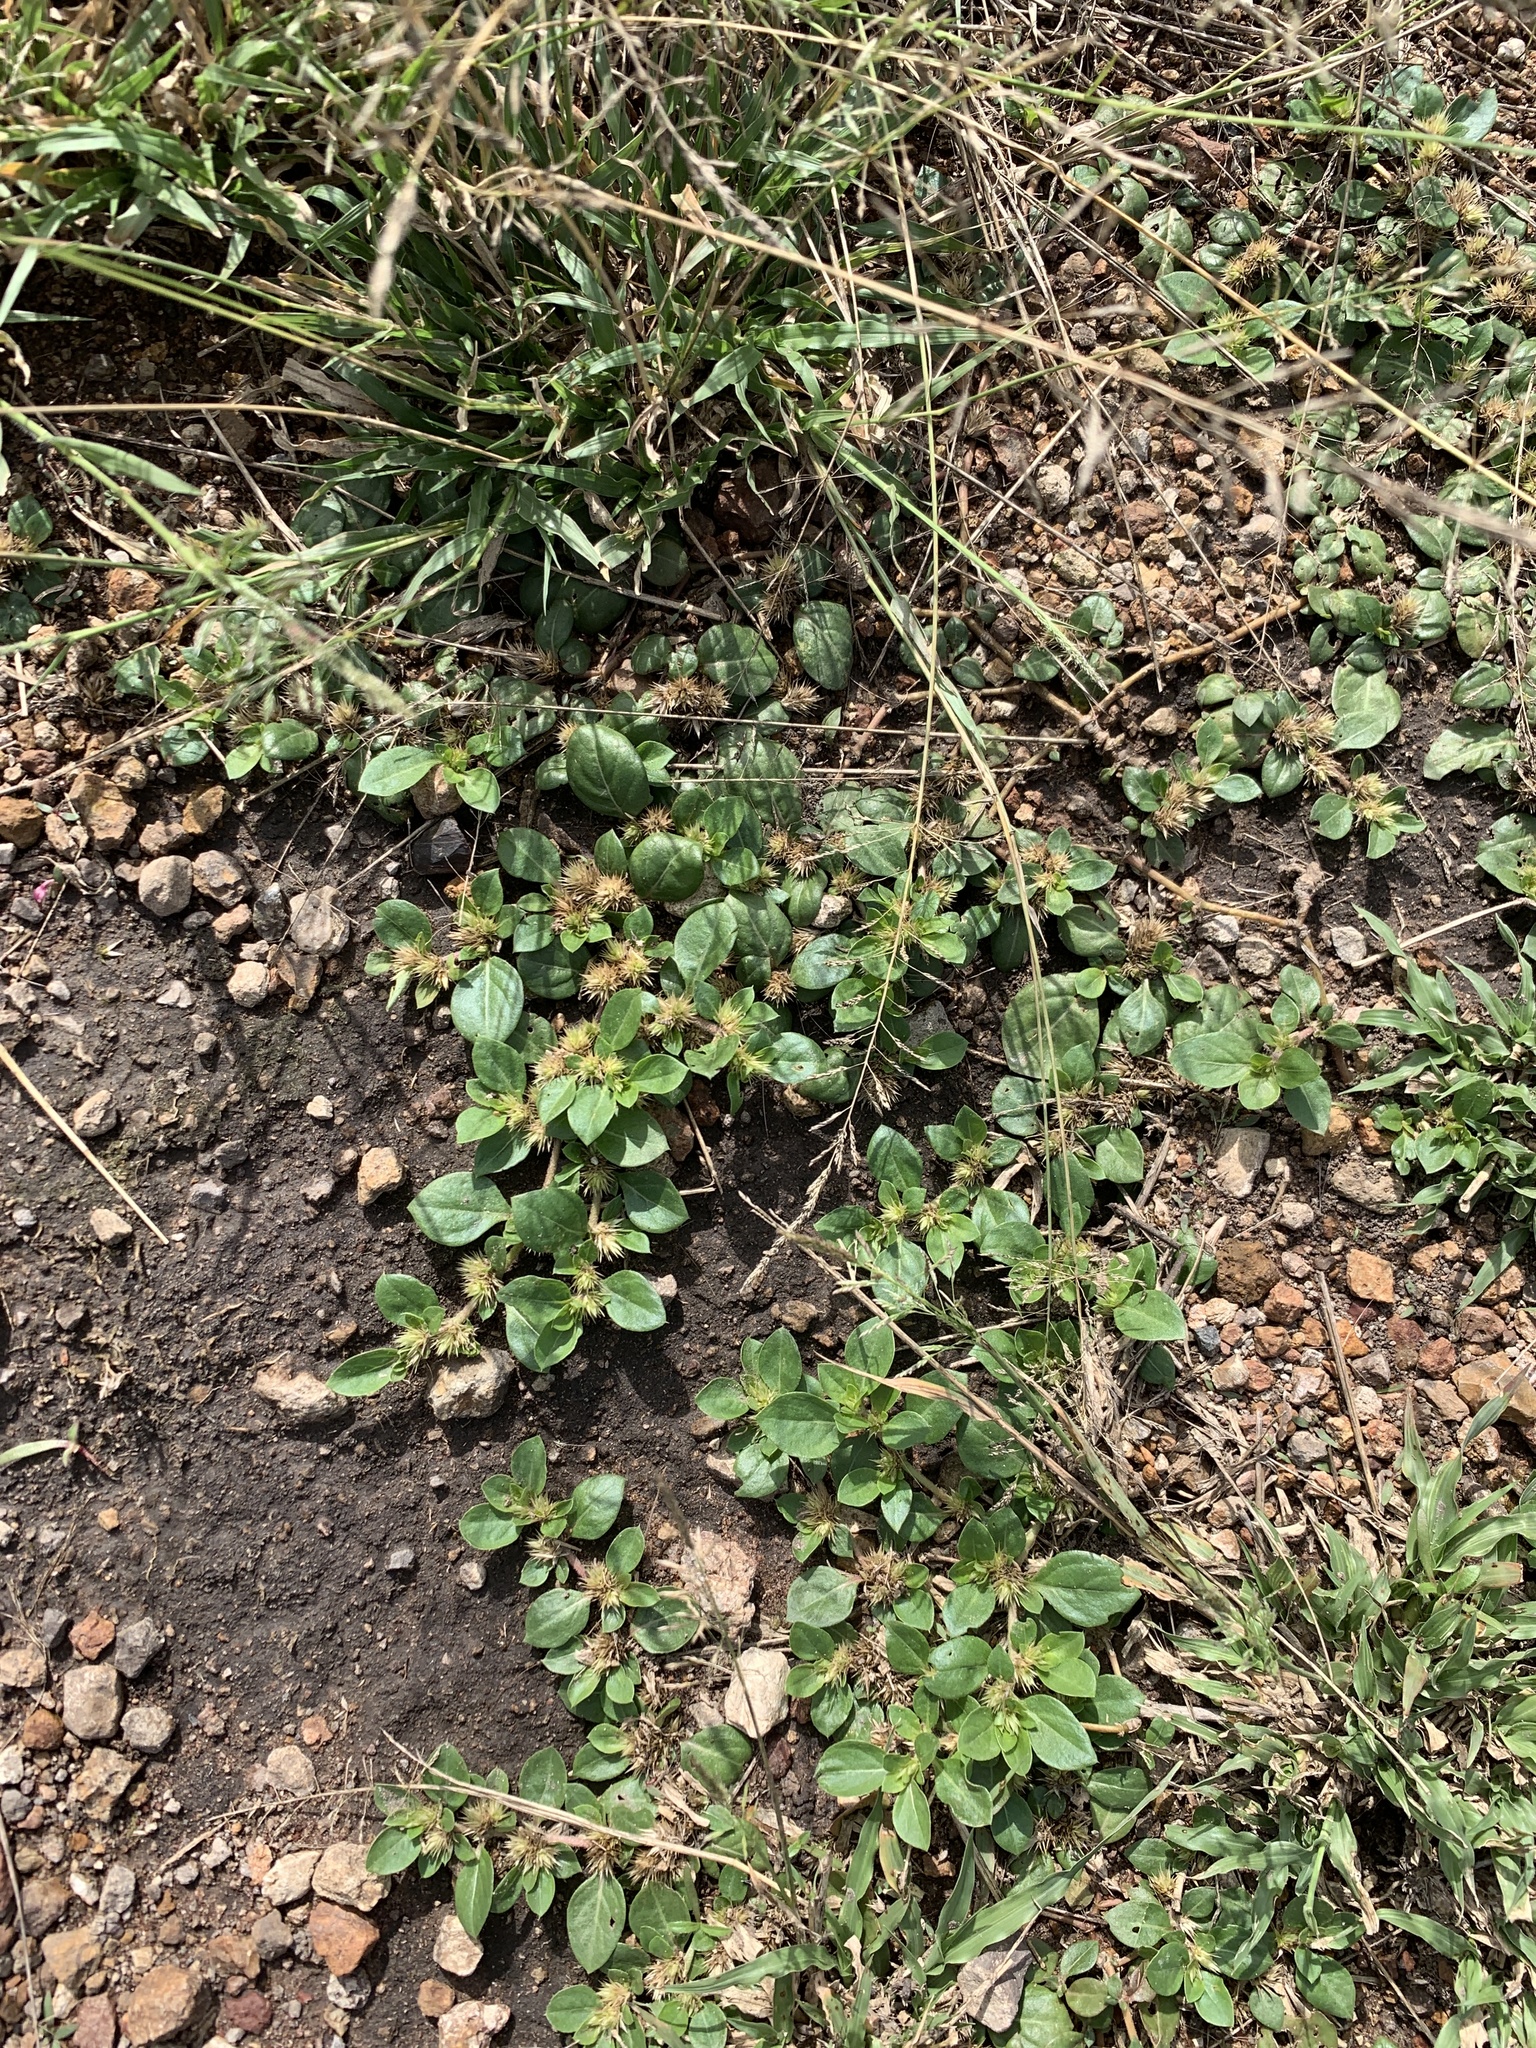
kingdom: Plantae
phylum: Tracheophyta
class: Magnoliopsida
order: Caryophyllales
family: Amaranthaceae
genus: Alternanthera
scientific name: Alternanthera pungens
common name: Khakiweed
